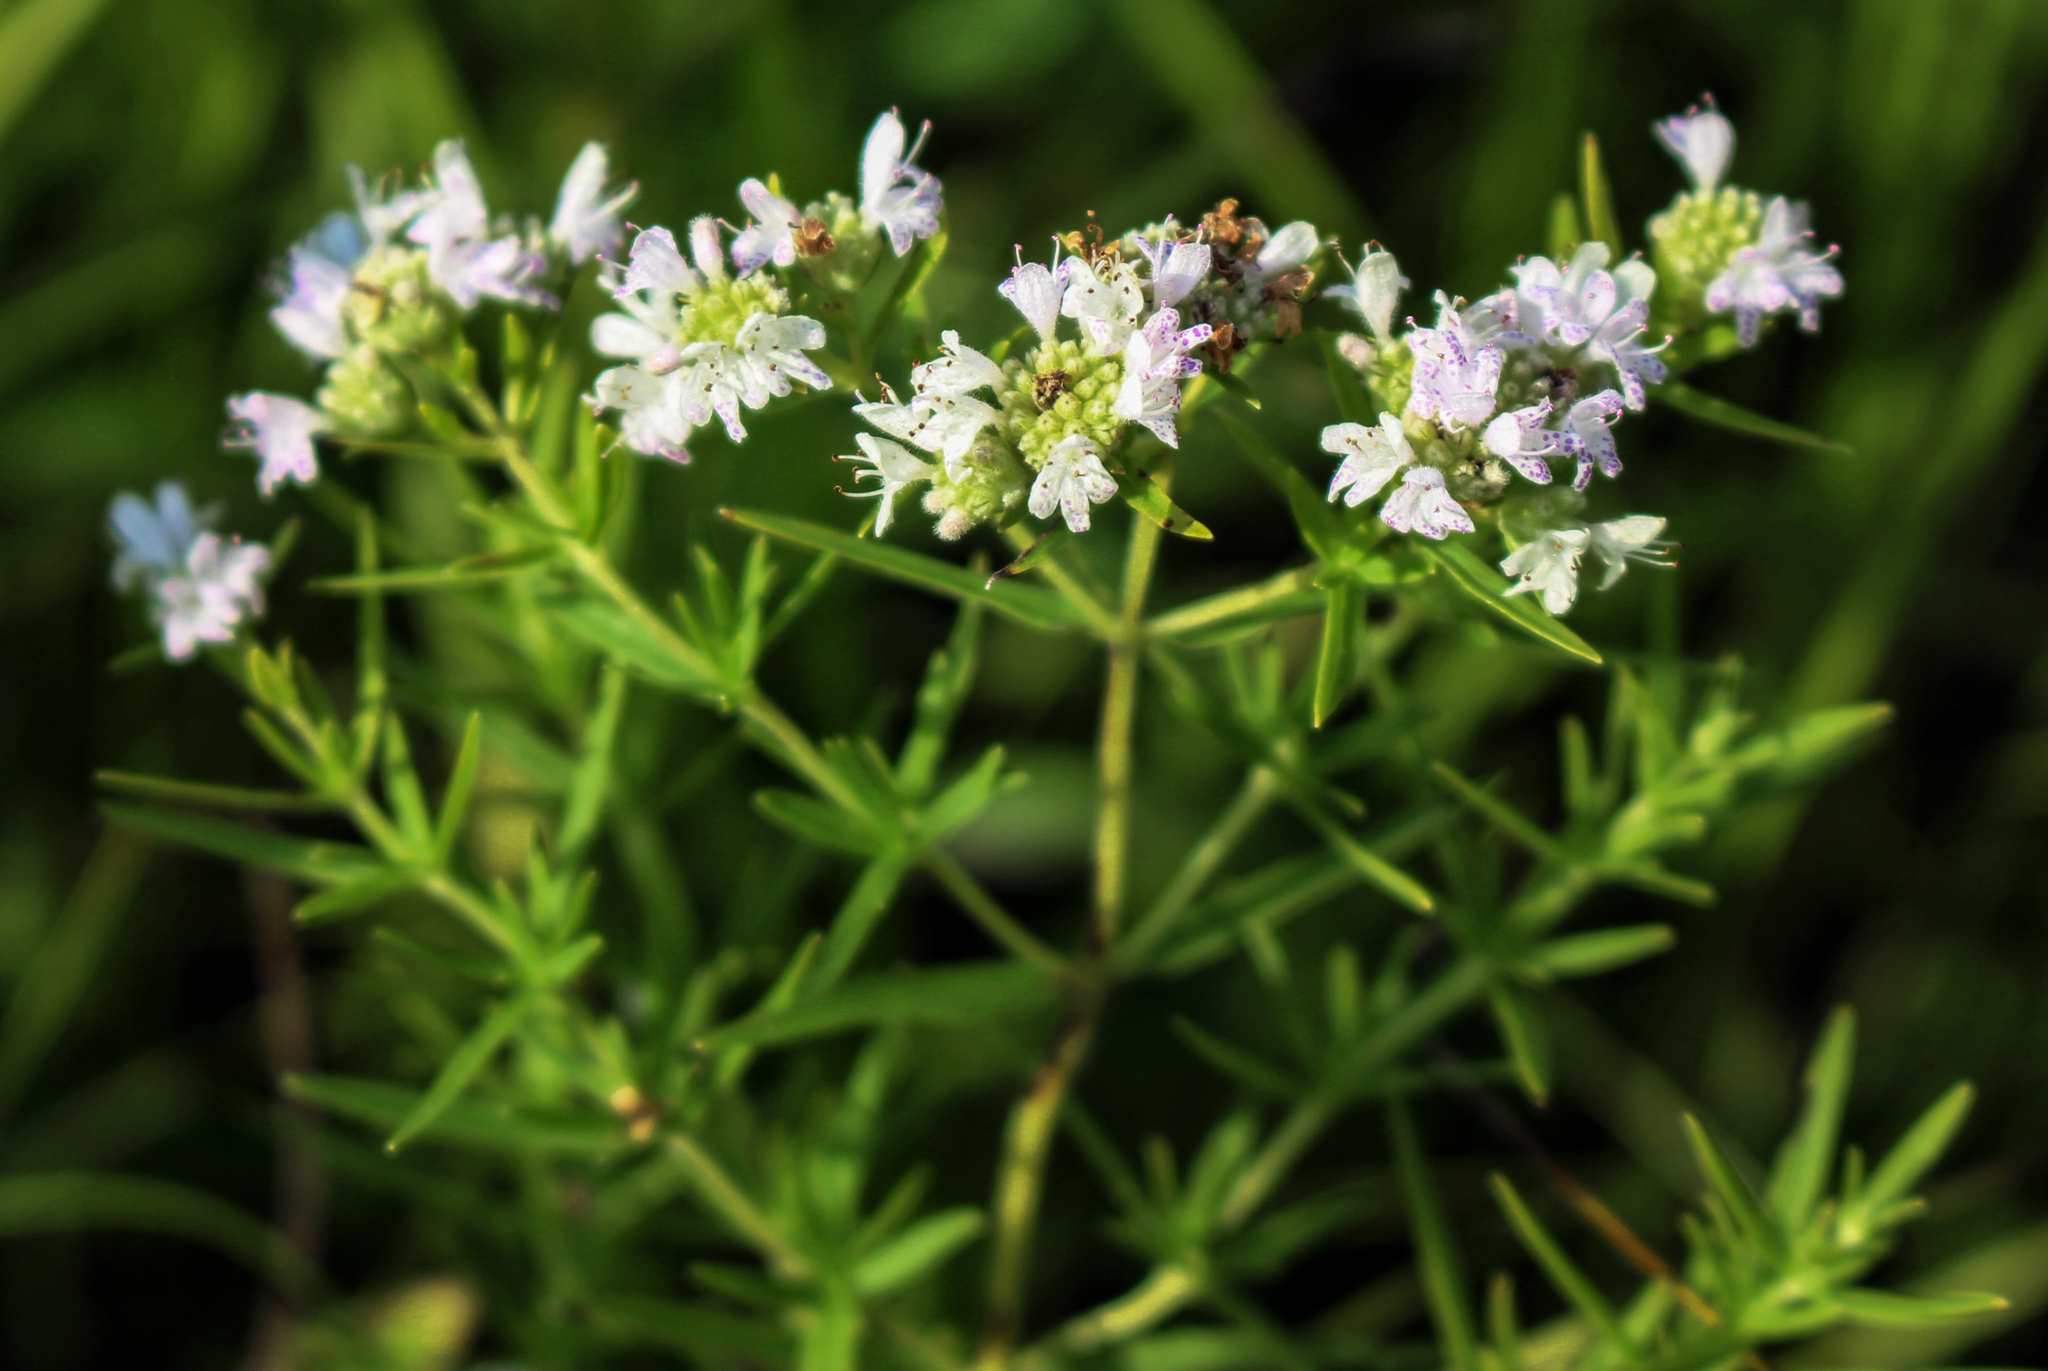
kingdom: Plantae
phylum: Tracheophyta
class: Magnoliopsida
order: Lamiales
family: Lamiaceae
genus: Pycnanthemum
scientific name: Pycnanthemum virginianum
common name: Virginia mountain-mint
